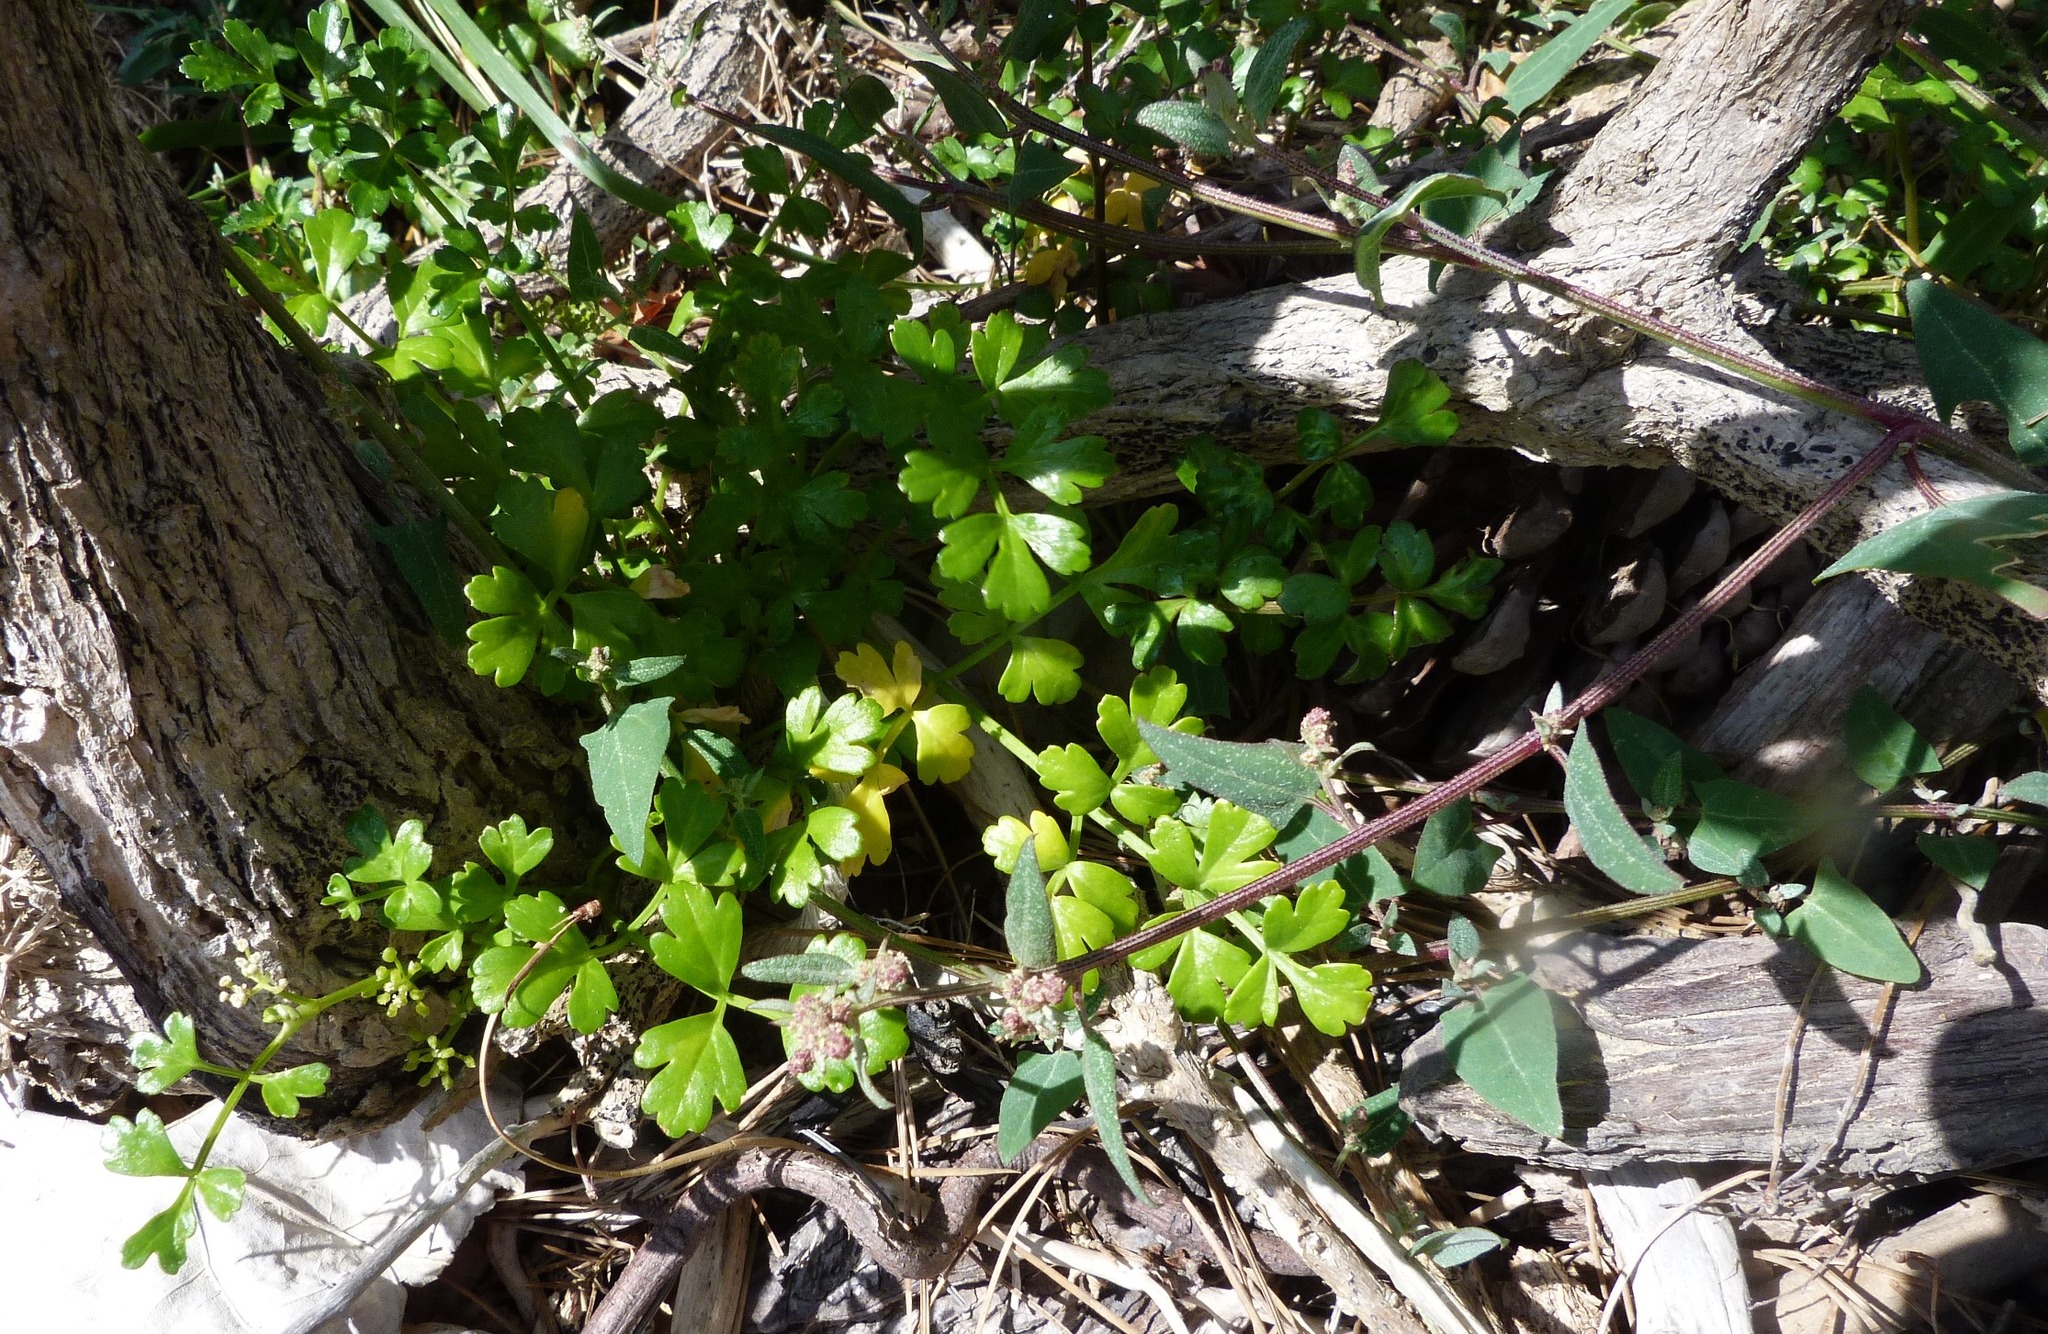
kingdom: Plantae
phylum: Tracheophyta
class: Magnoliopsida
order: Apiales
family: Apiaceae
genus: Apium
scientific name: Apium prostratum
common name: Prostrate marshwort
